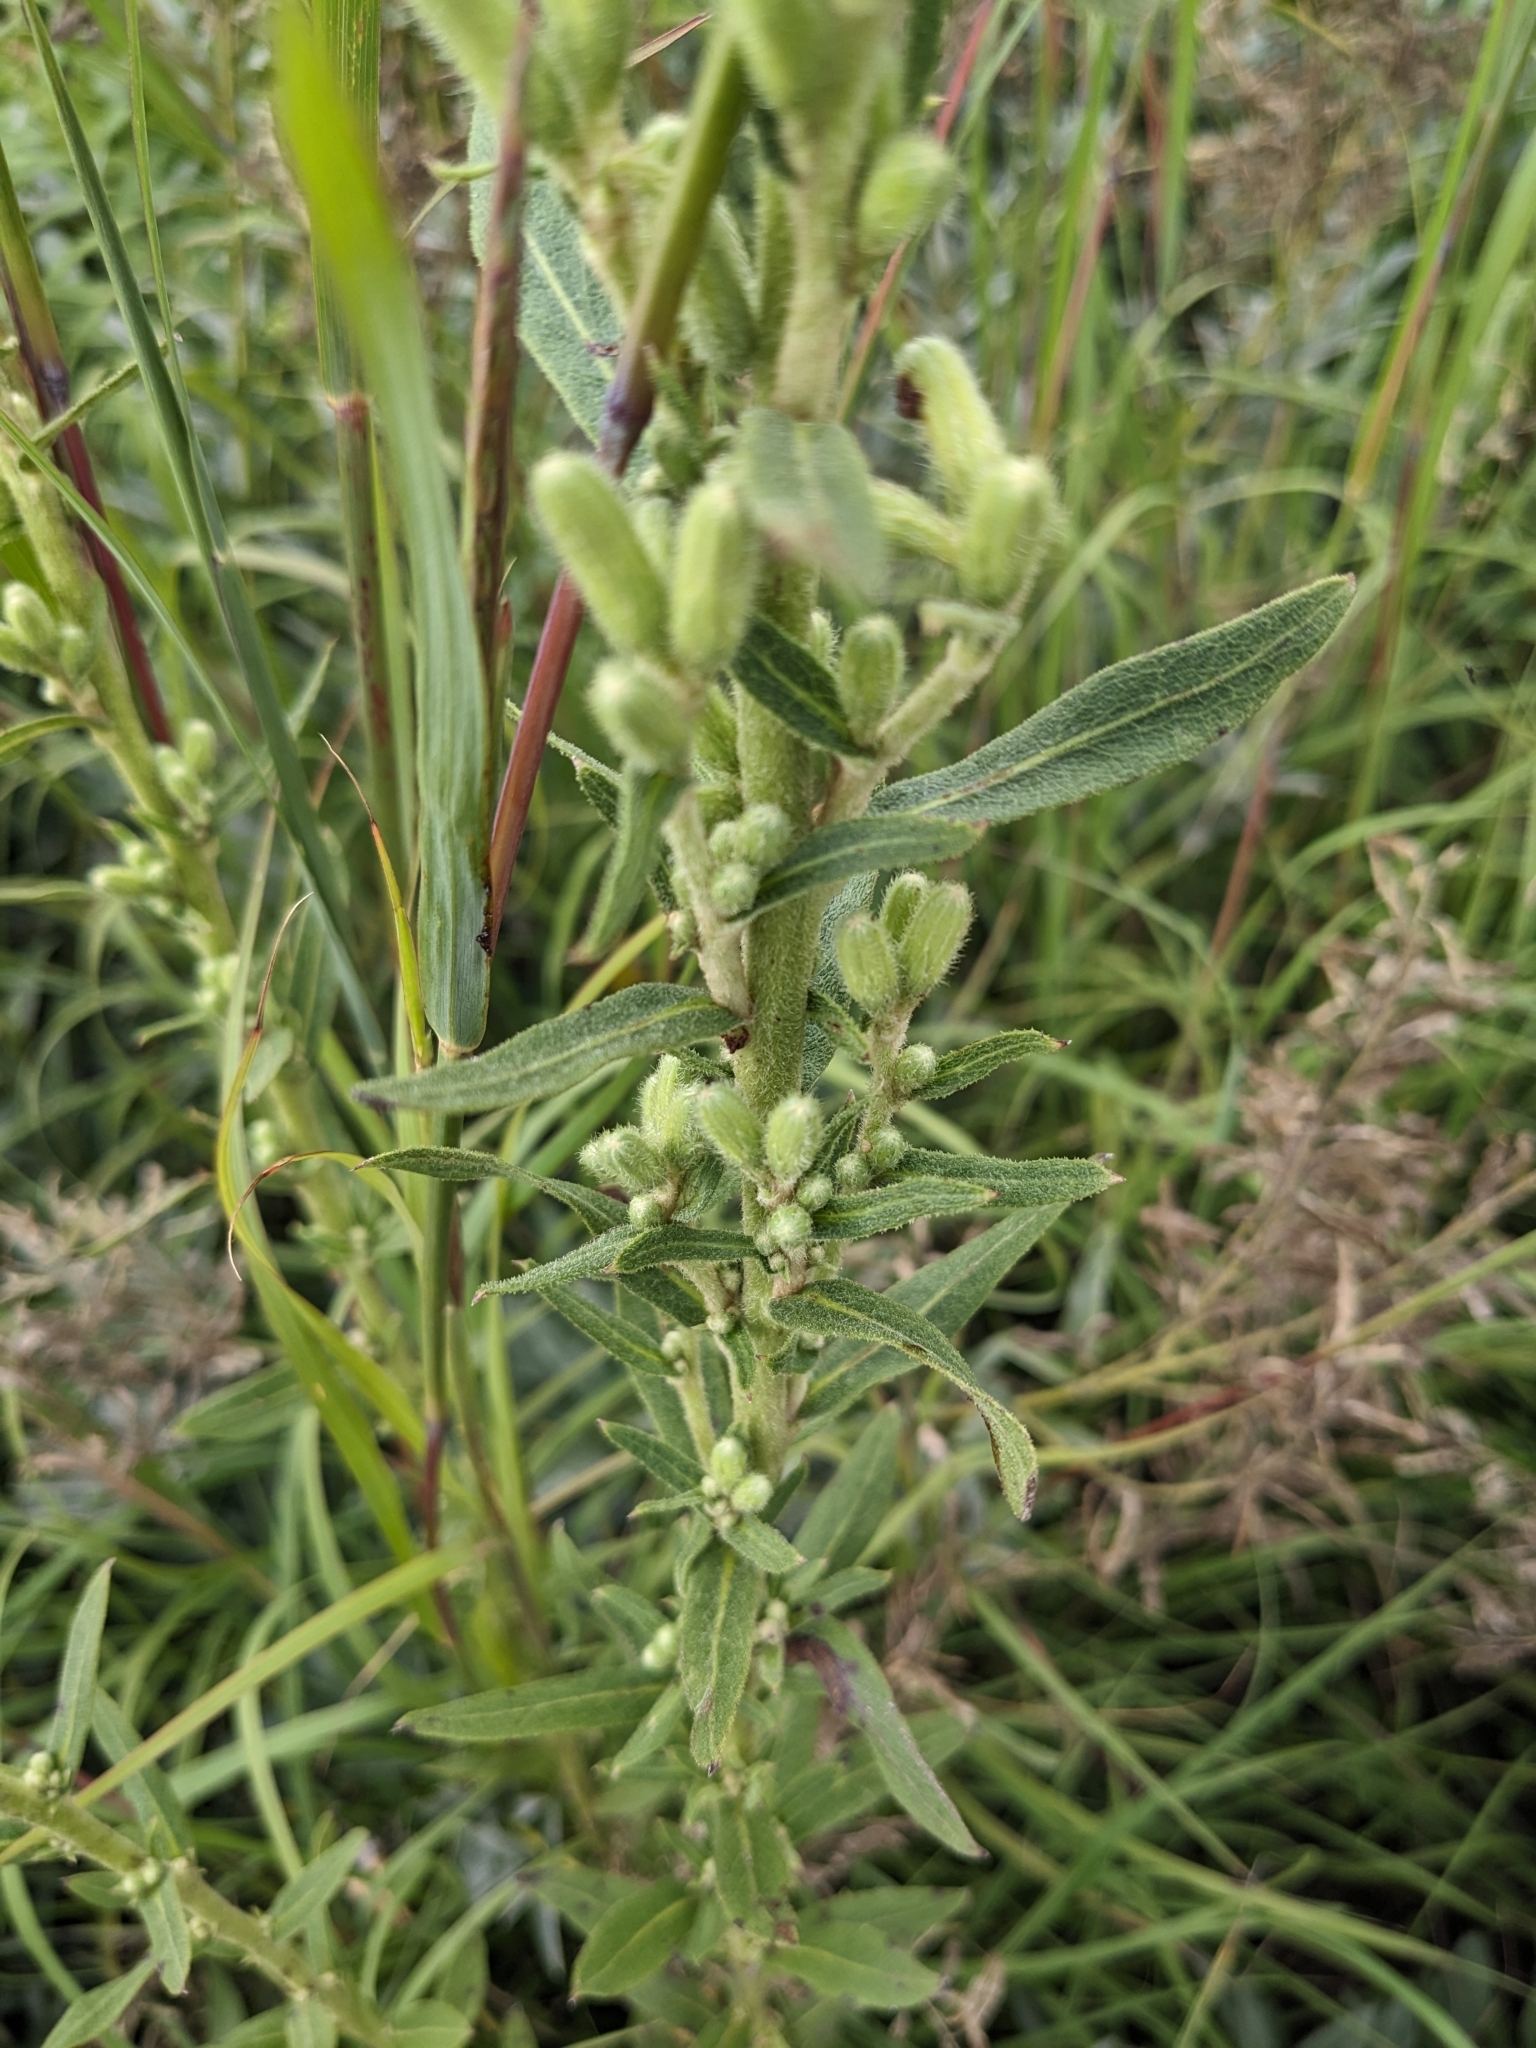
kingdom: Plantae
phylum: Tracheophyta
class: Magnoliopsida
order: Asterales
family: Asteraceae
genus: Nabalus
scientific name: Nabalus asper
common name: Rough rattlesnakeroot
